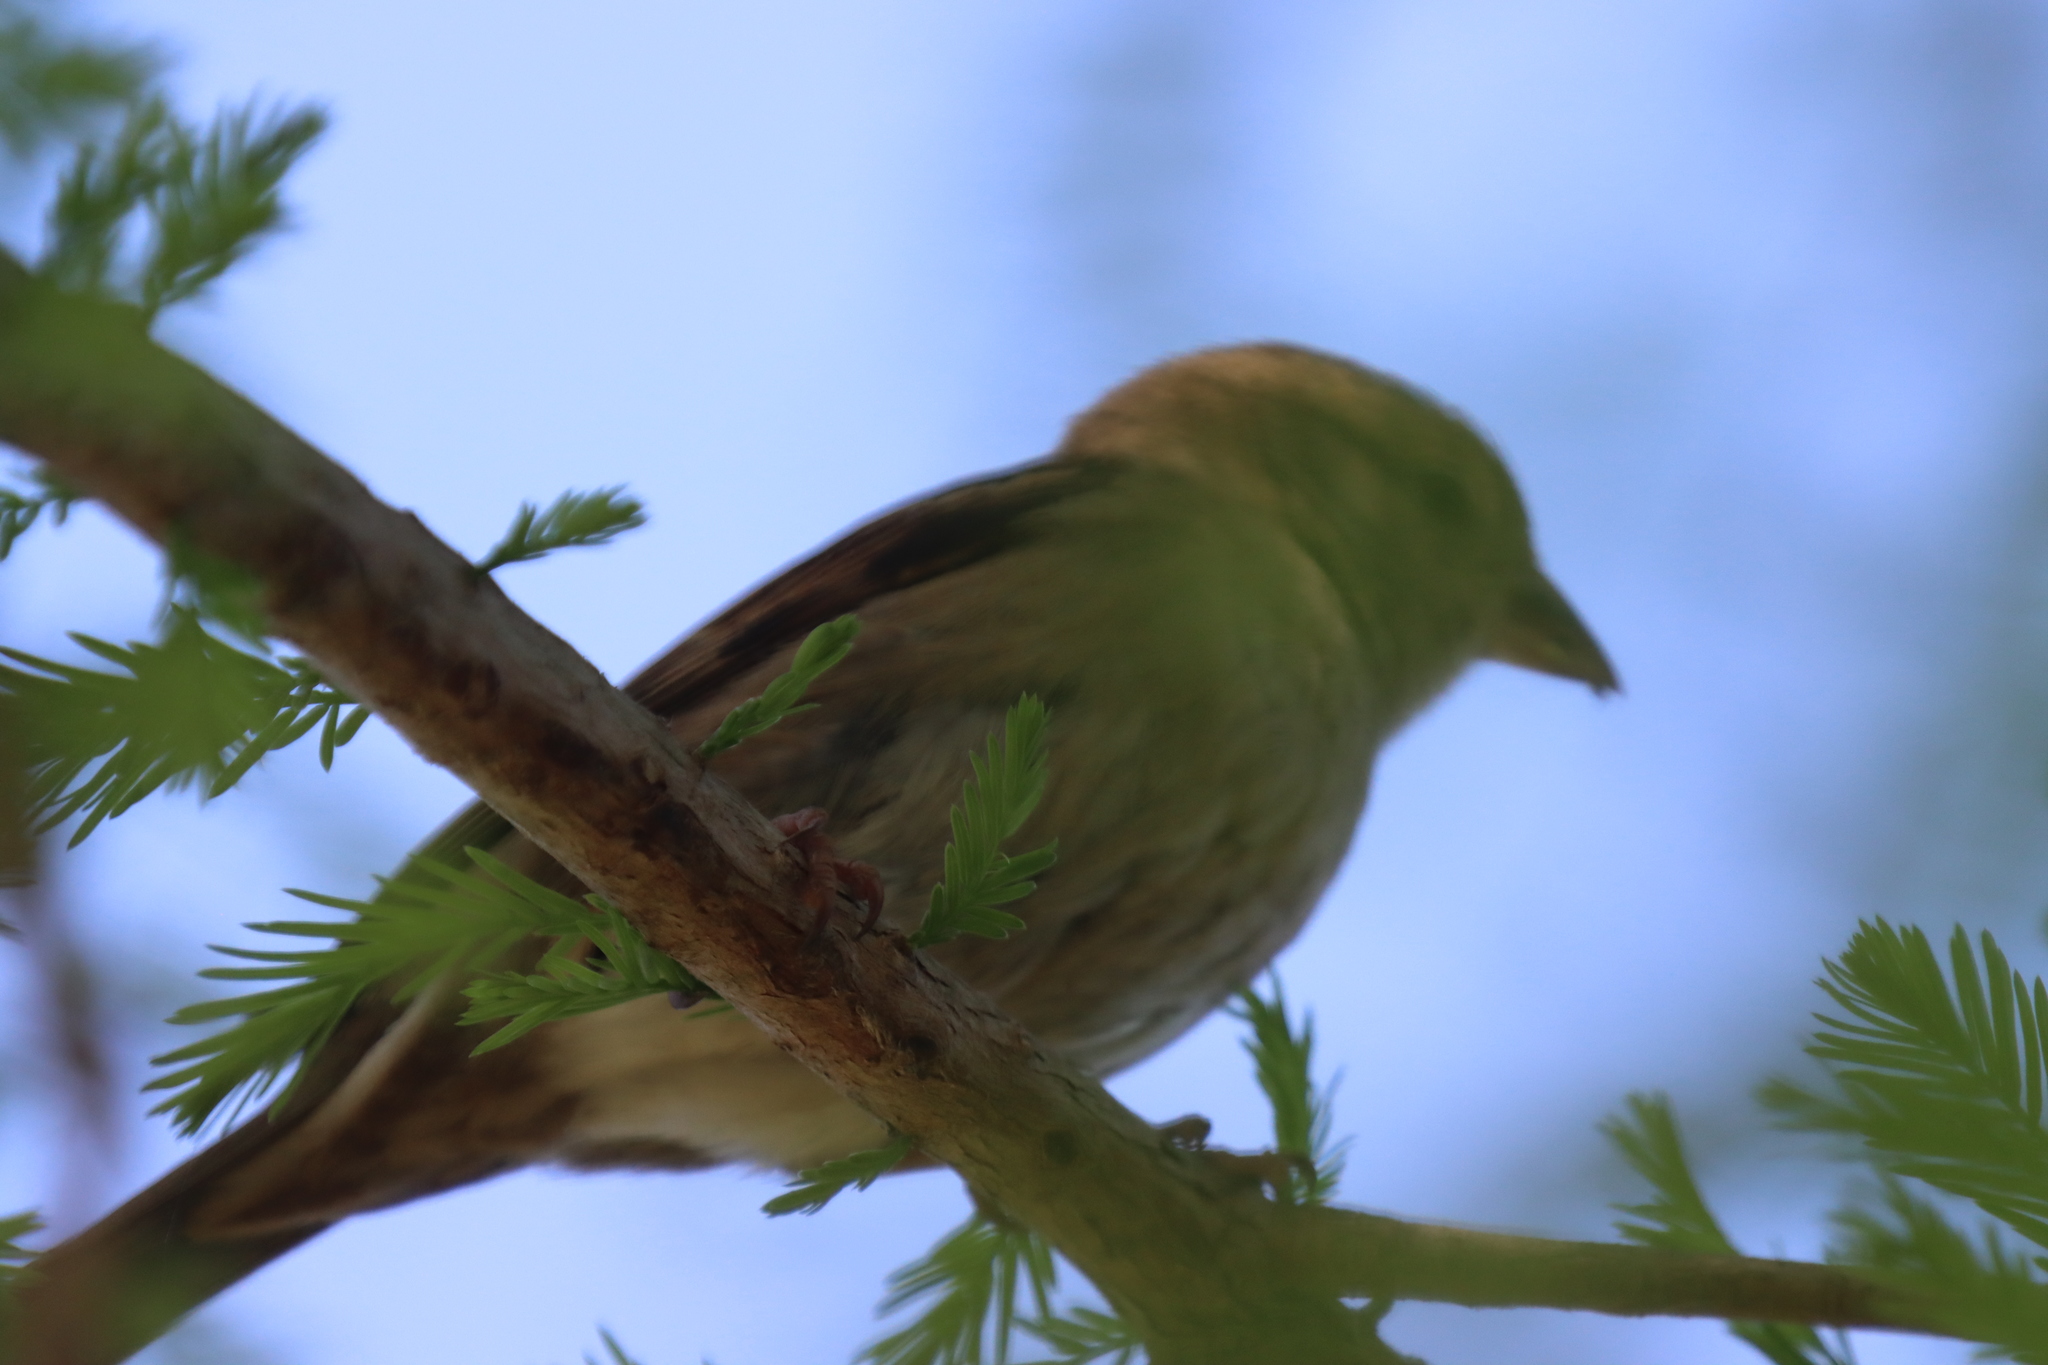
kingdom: Animalia
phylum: Chordata
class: Aves
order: Passeriformes
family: Passeridae
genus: Passer
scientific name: Passer domesticus
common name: House sparrow
